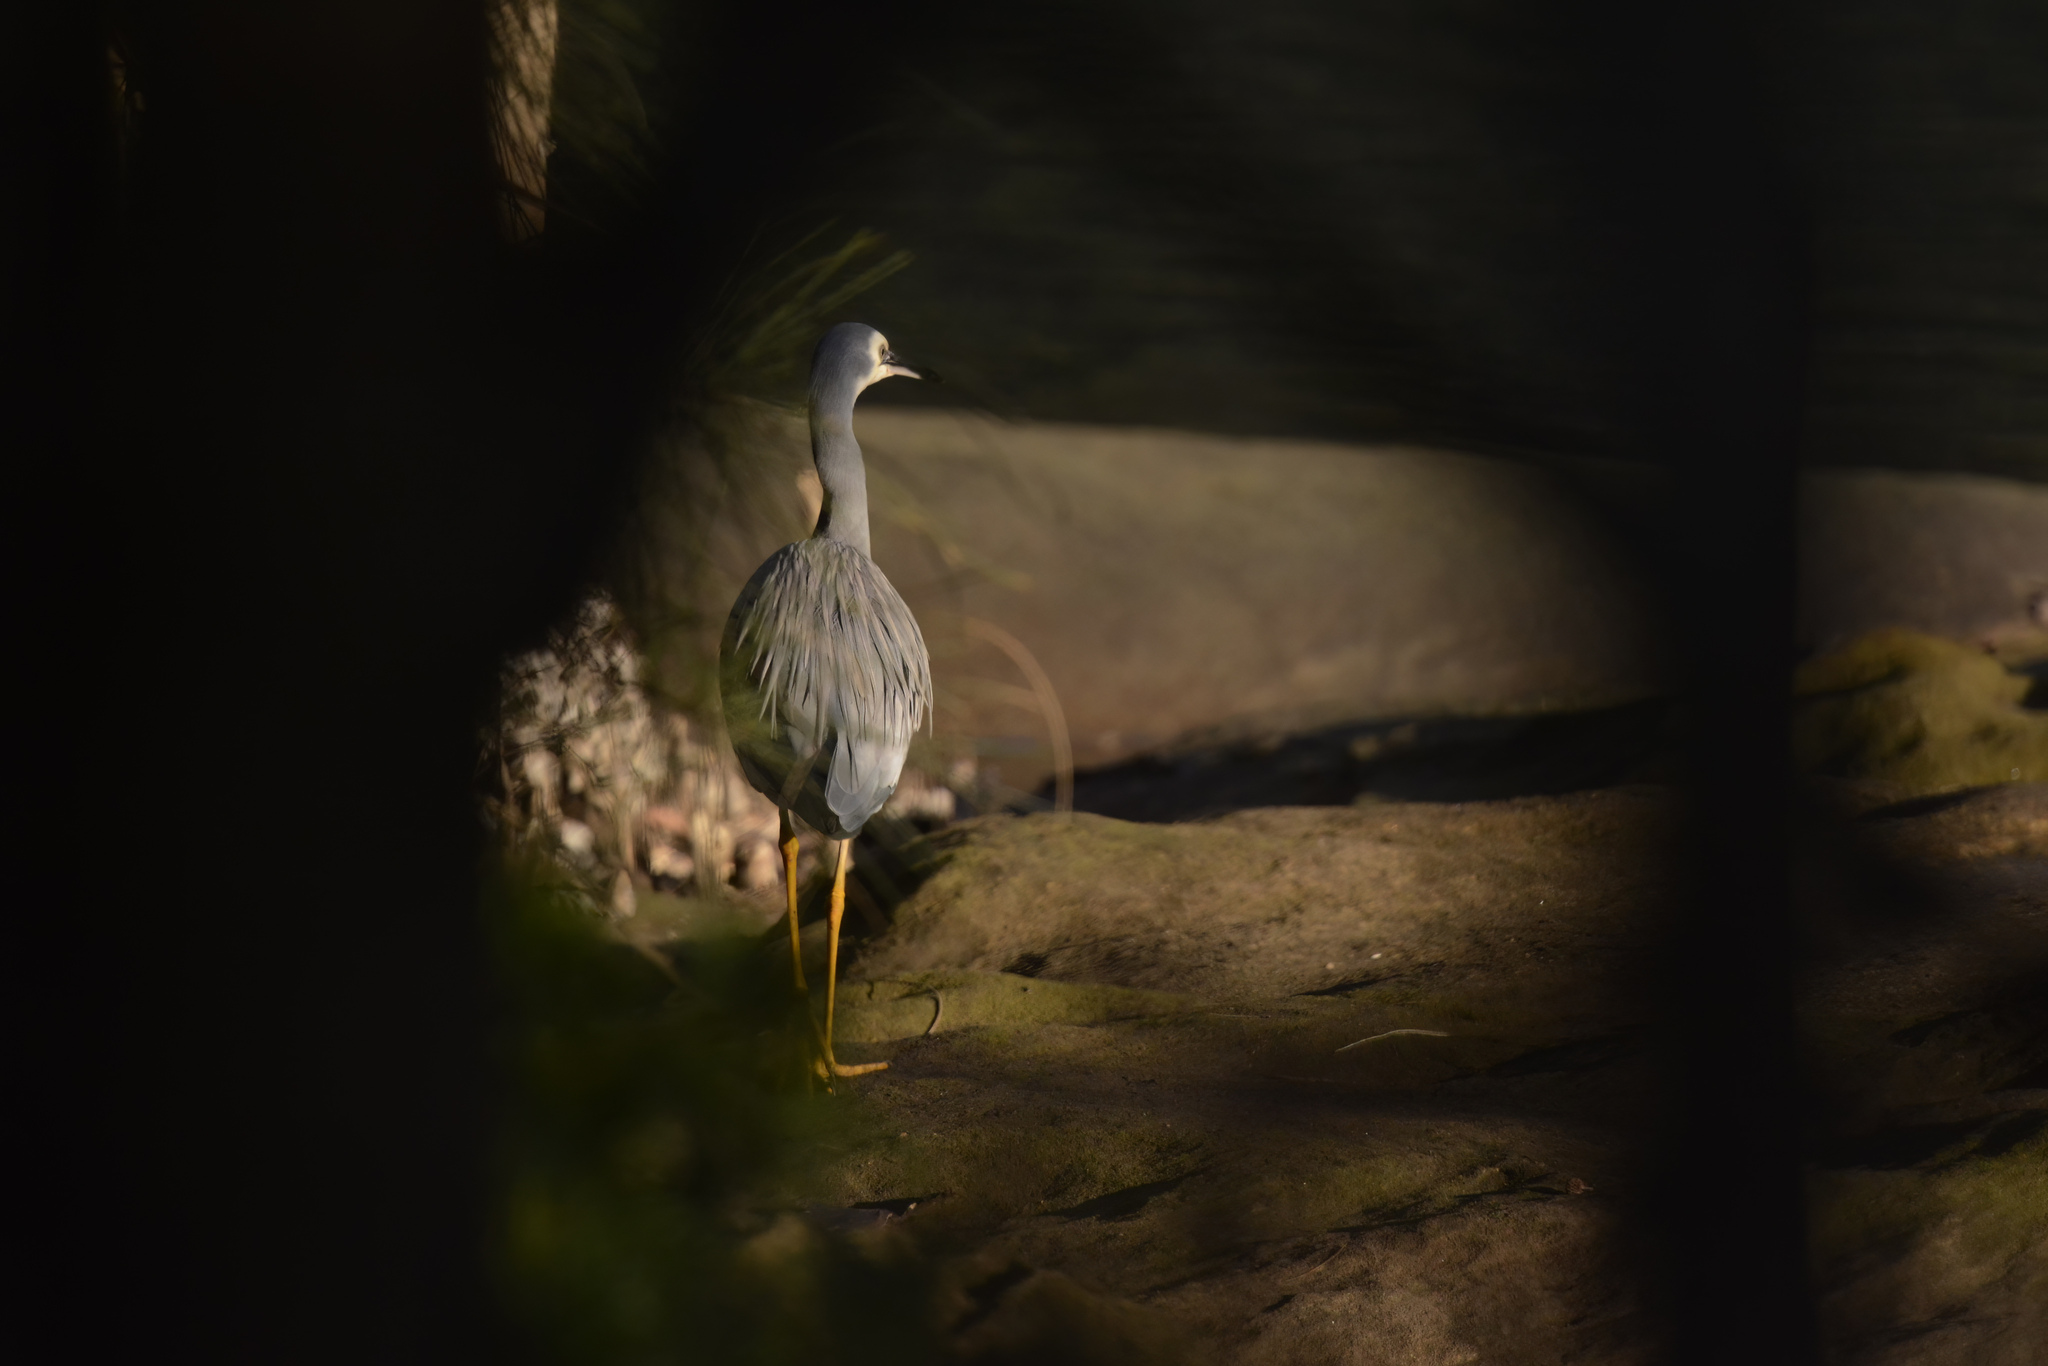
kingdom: Animalia
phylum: Chordata
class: Aves
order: Pelecaniformes
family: Ardeidae
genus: Egretta
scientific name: Egretta novaehollandiae
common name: White-faced heron
